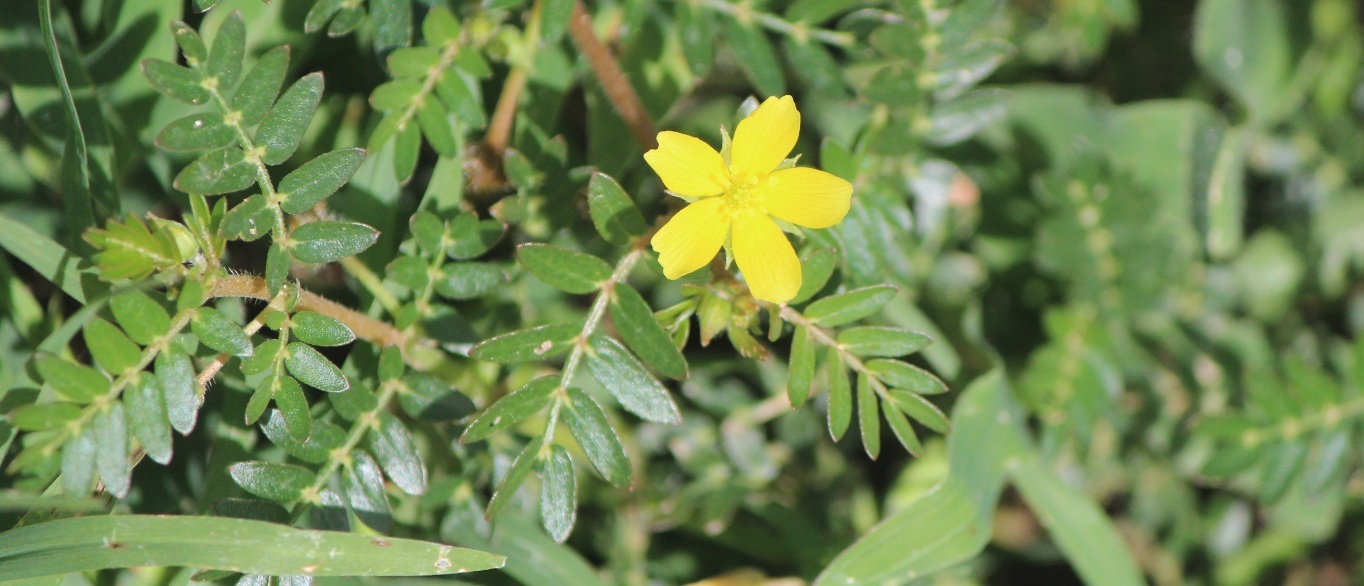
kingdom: Plantae
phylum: Tracheophyta
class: Magnoliopsida
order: Zygophyllales
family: Zygophyllaceae
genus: Tribulus
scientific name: Tribulus terrestris
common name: Puncturevine
